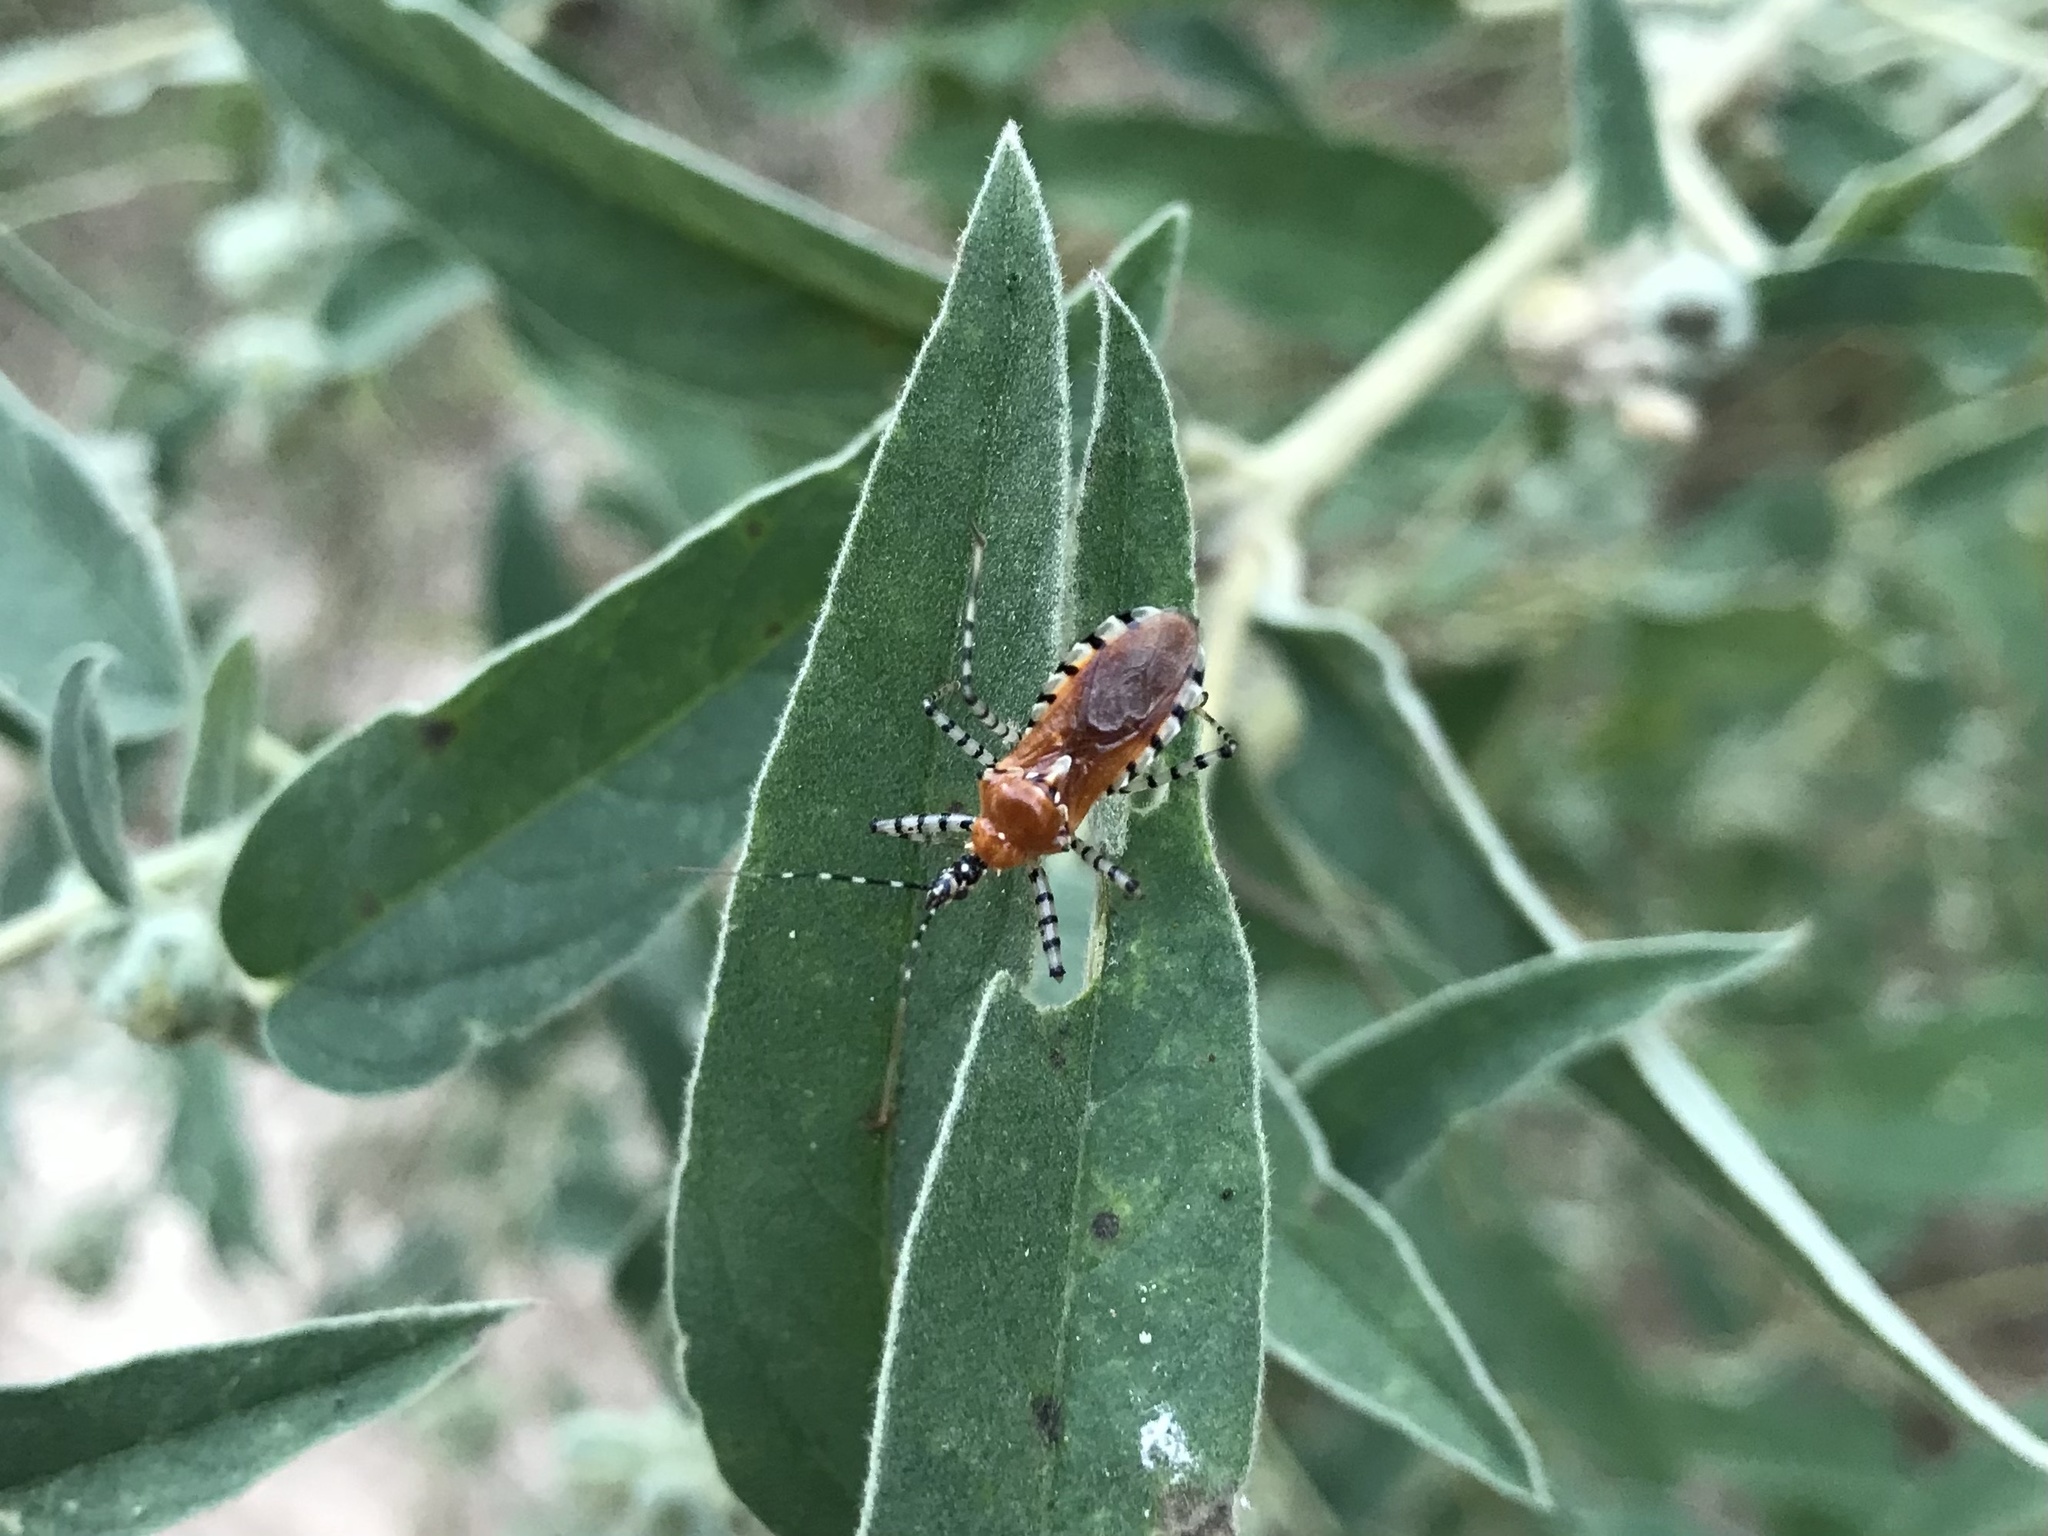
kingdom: Animalia
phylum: Arthropoda
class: Insecta
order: Hemiptera
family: Reduviidae
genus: Pselliopus
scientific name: Pselliopus cinctus
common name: Ringed assassin bug
